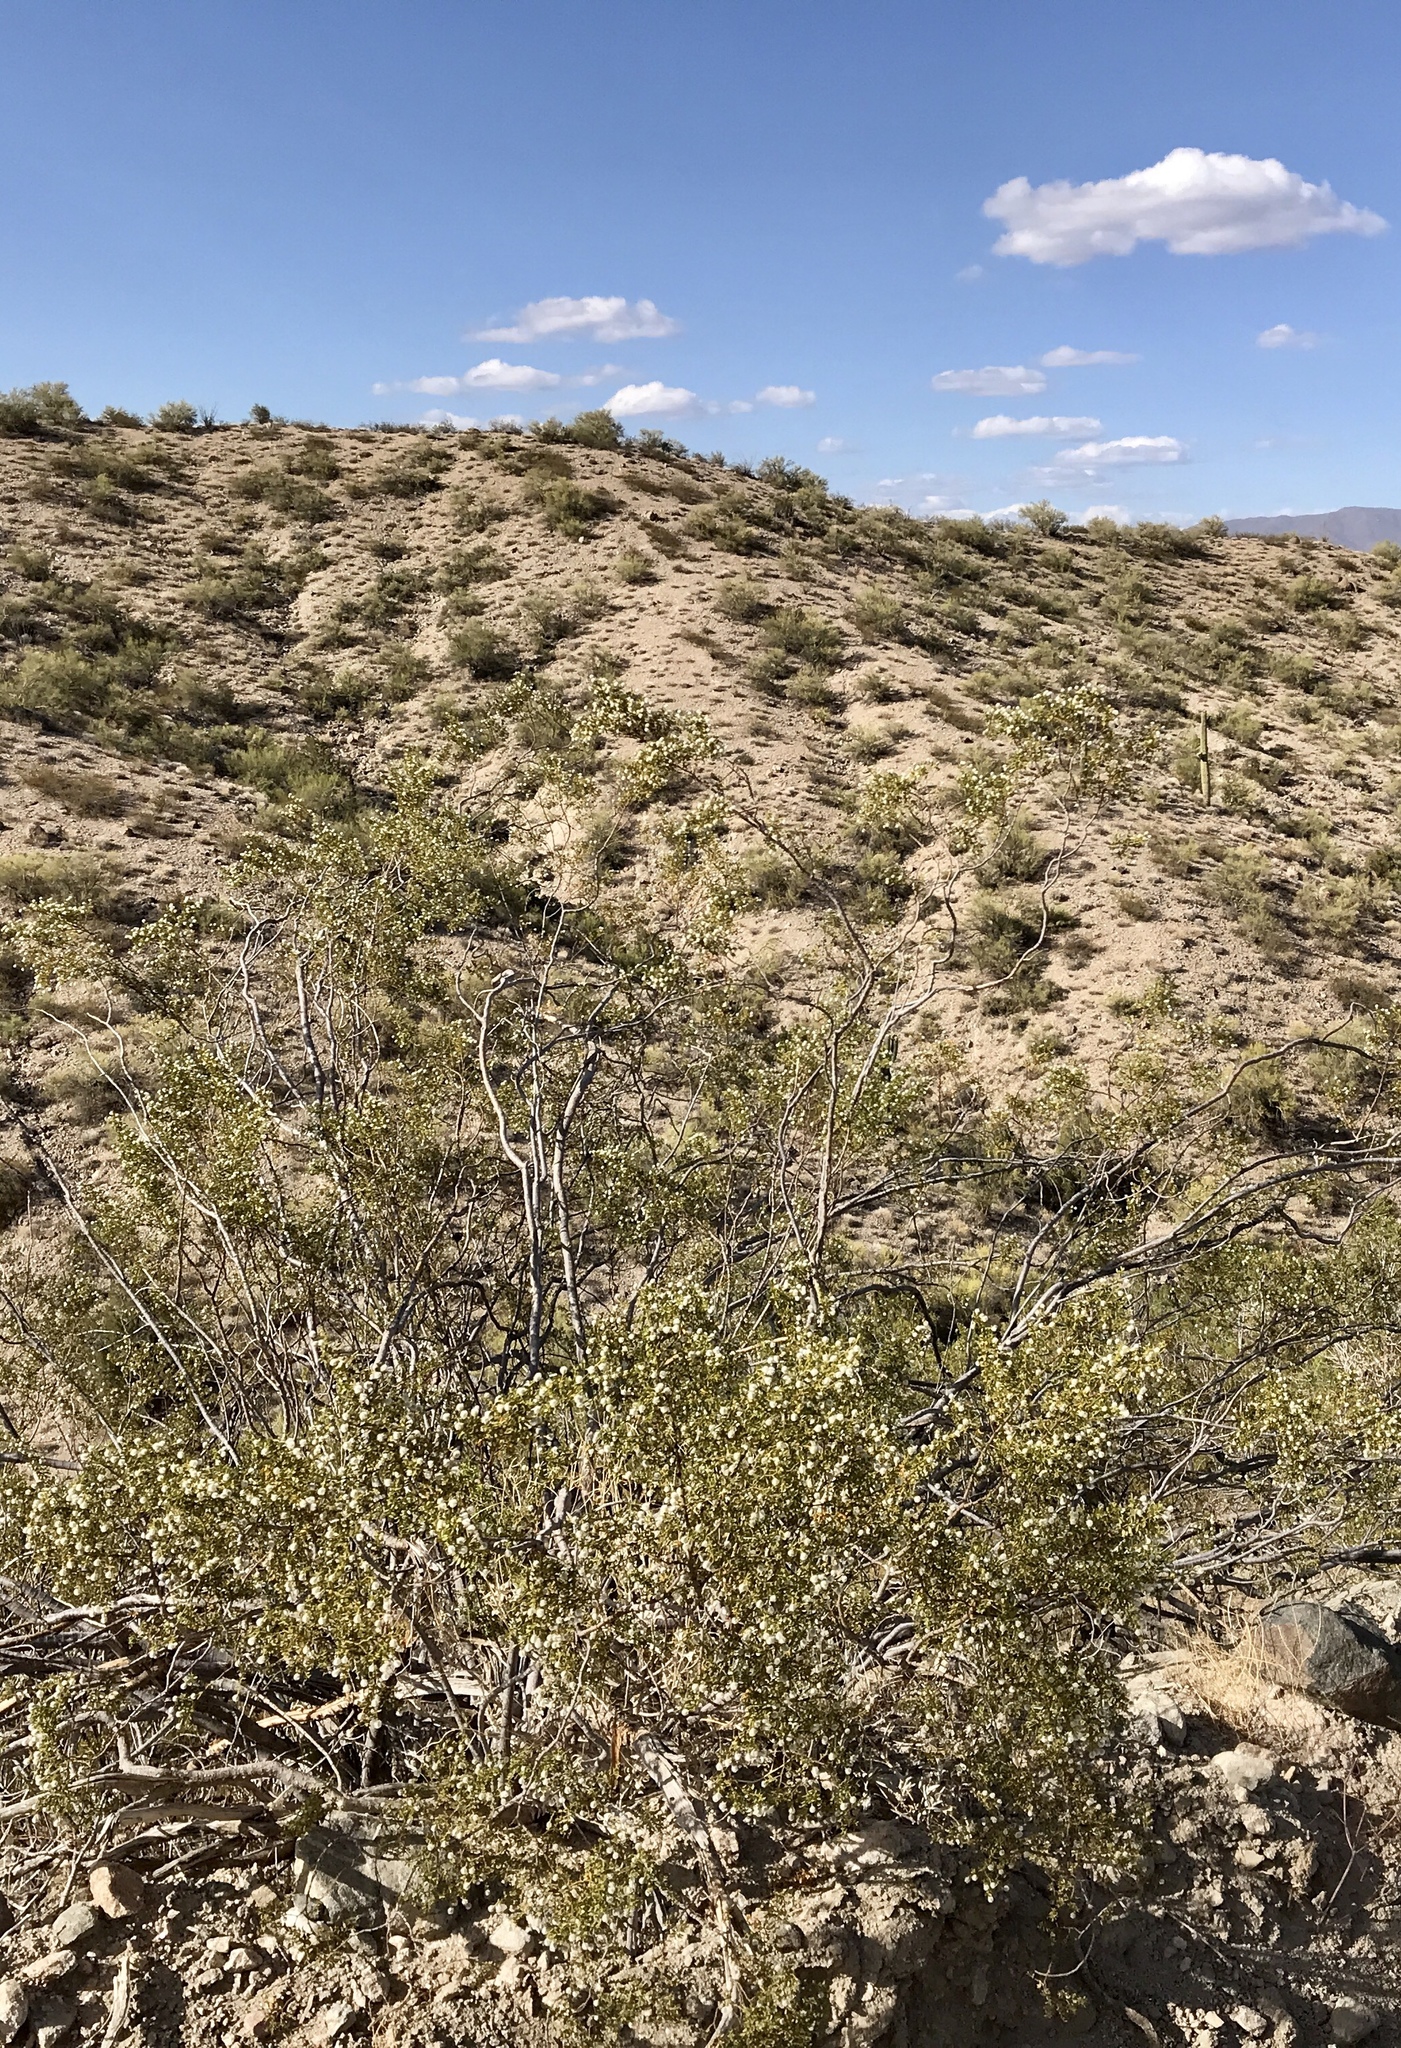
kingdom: Plantae
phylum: Tracheophyta
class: Magnoliopsida
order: Zygophyllales
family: Zygophyllaceae
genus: Larrea
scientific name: Larrea tridentata
